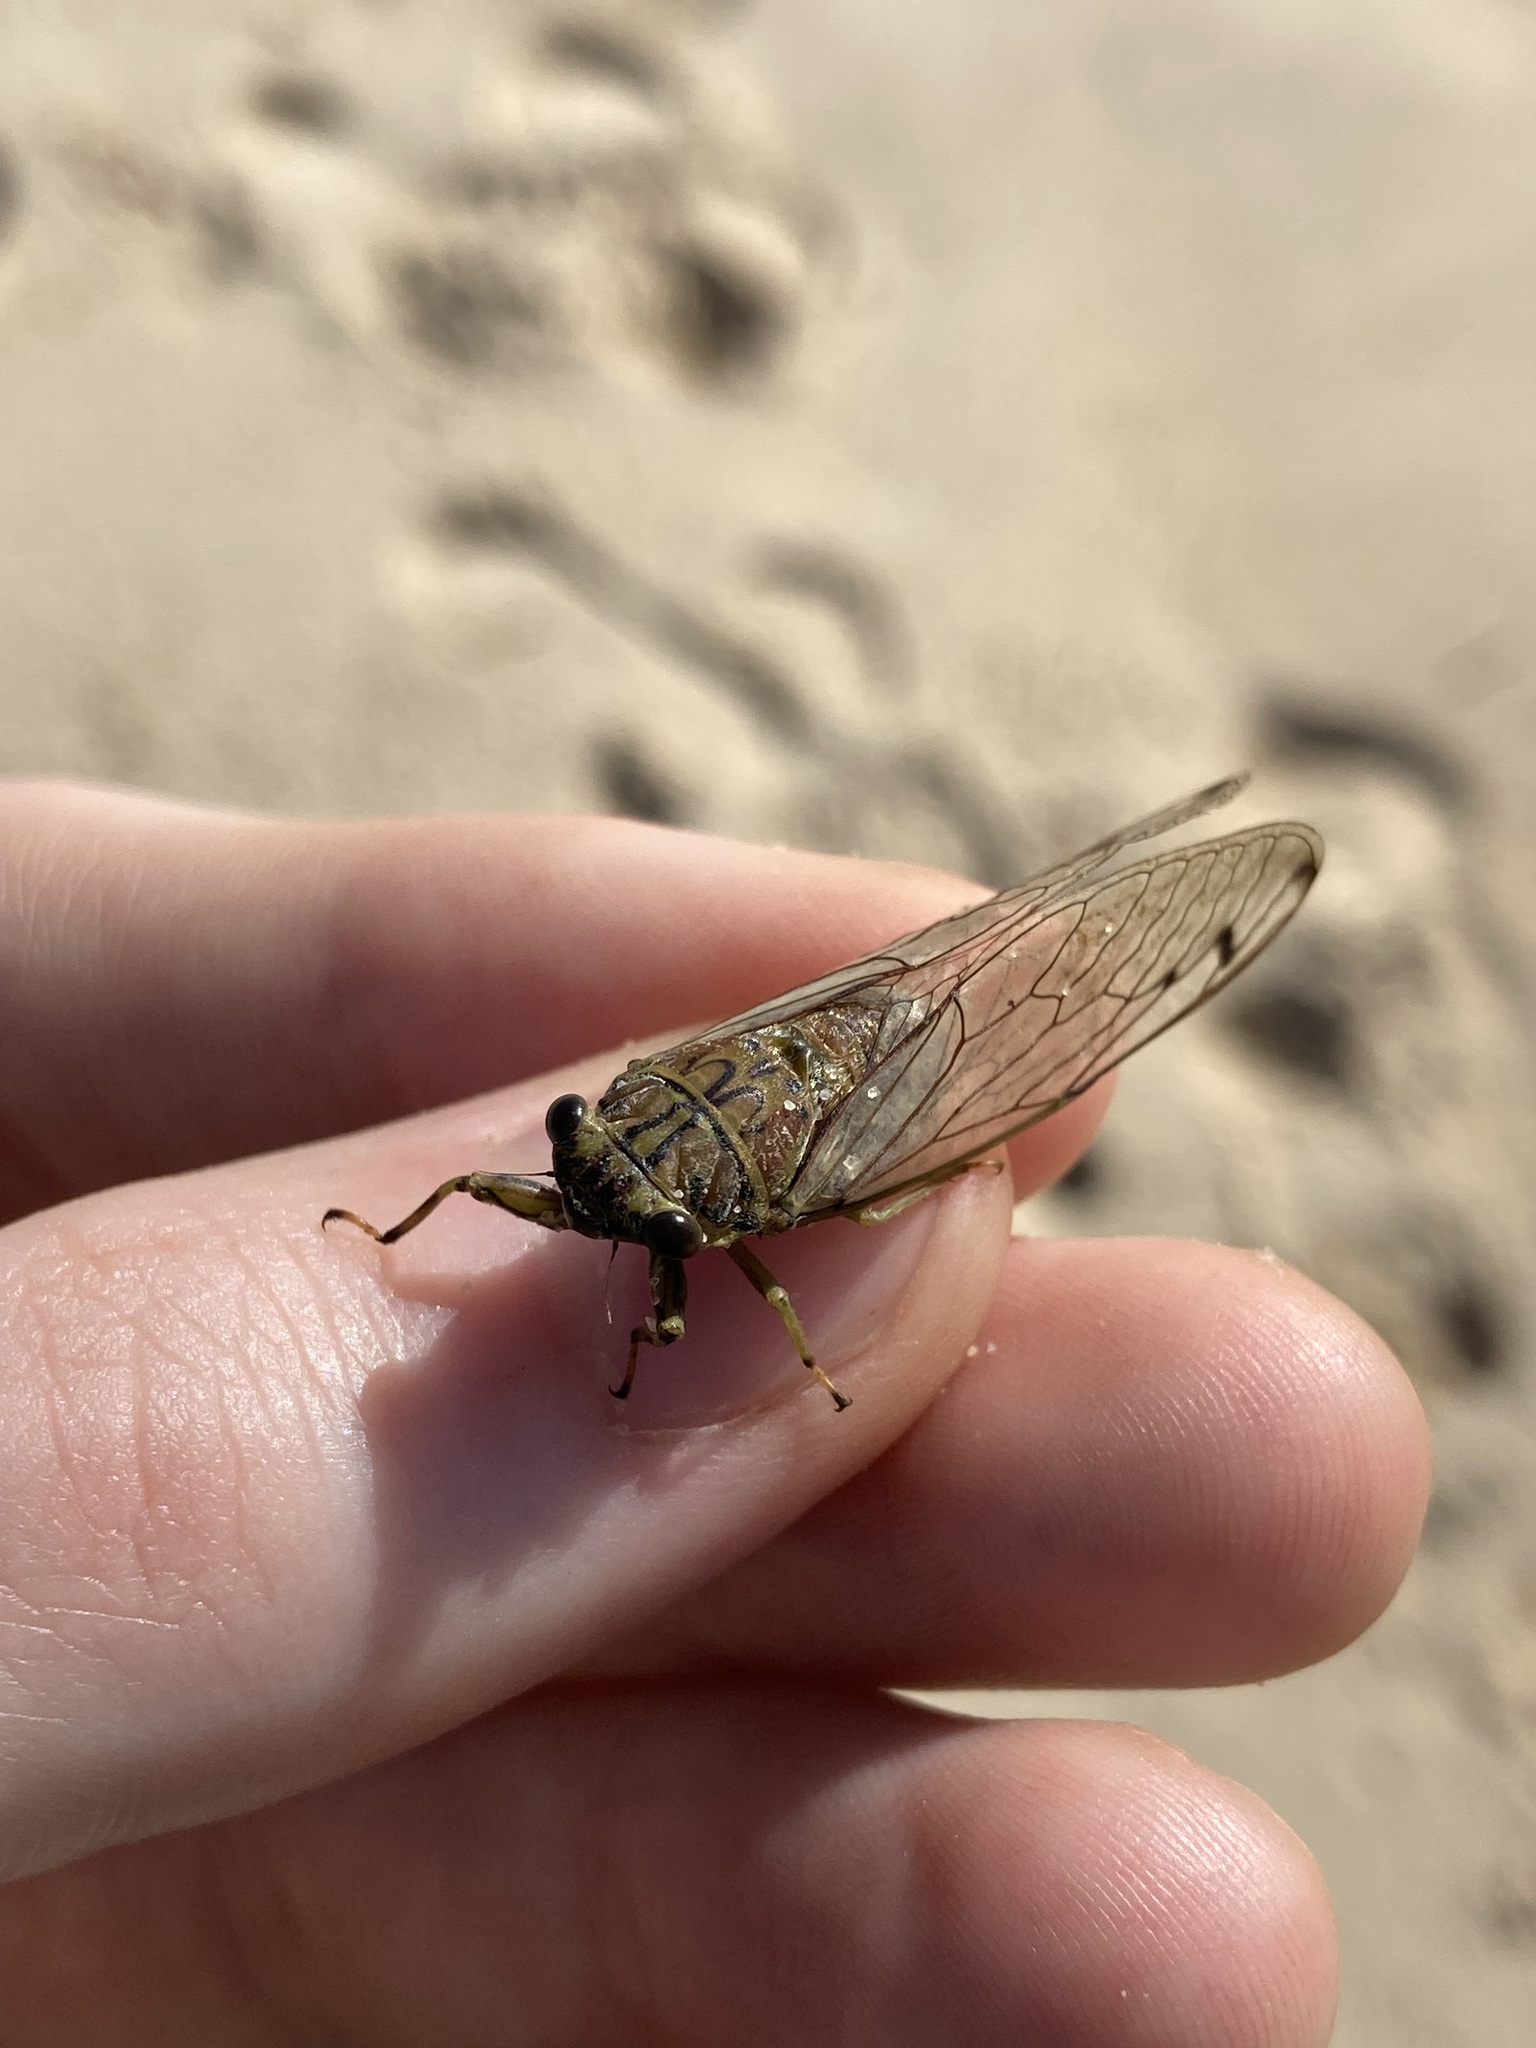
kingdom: Animalia
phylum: Arthropoda
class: Insecta
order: Hemiptera
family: Cicadidae
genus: Tamasa
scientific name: Tamasa tristigma
